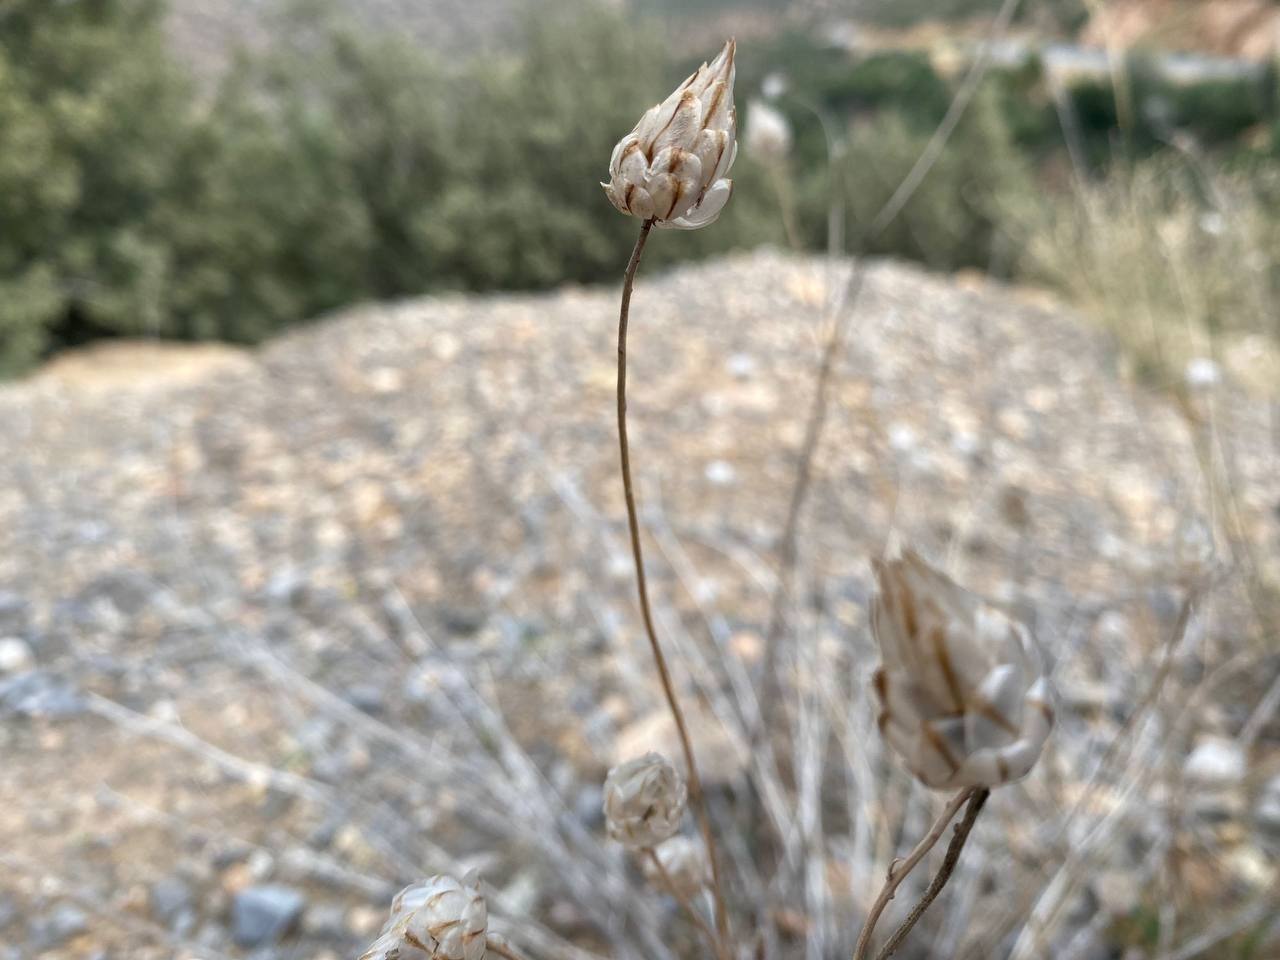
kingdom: Plantae
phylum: Tracheophyta
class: Magnoliopsida
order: Asterales
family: Asteraceae
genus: Catananche
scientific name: Catananche caerulea
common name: Blue cupidone
